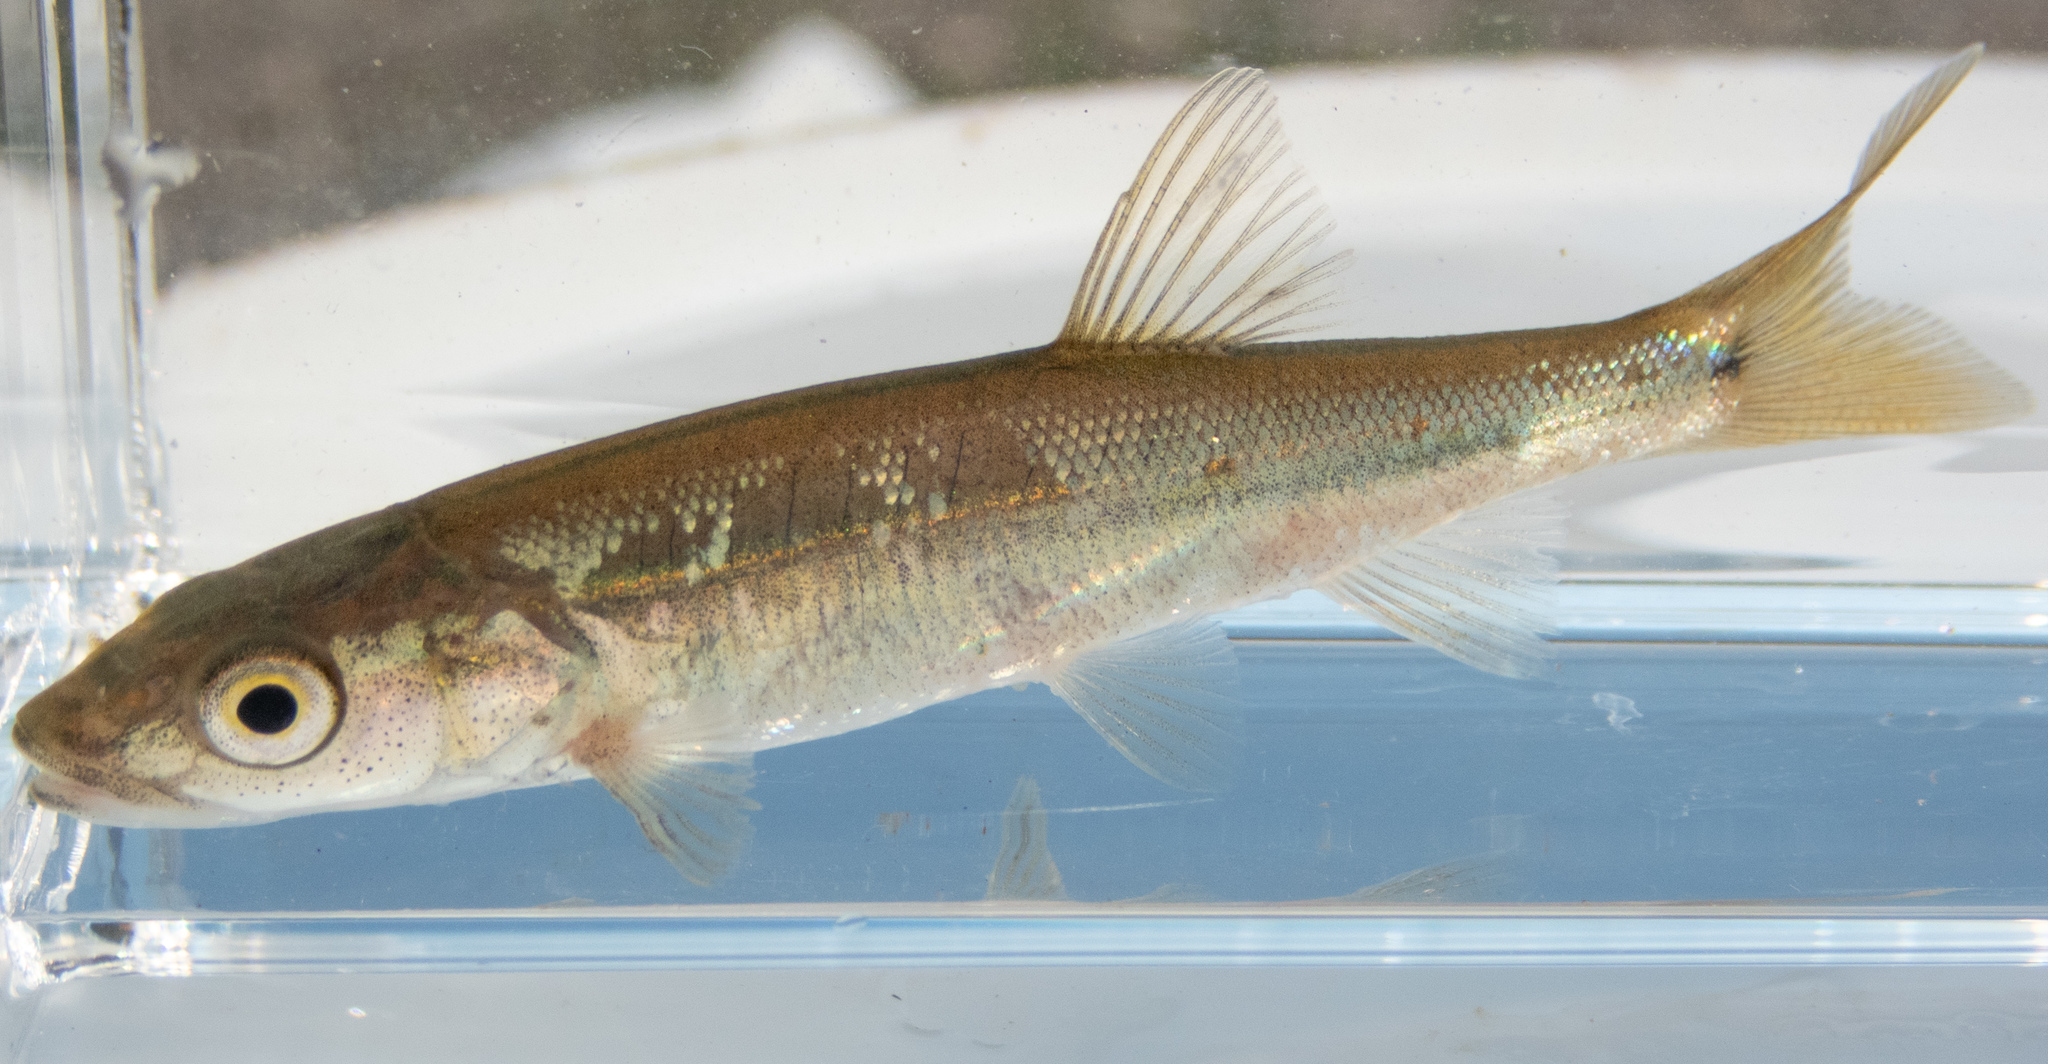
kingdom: Animalia
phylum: Chordata
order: Cypriniformes
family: Cyprinidae
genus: Ptychocheilus
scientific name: Ptychocheilus grandis
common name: Sacramento pikeminnow
